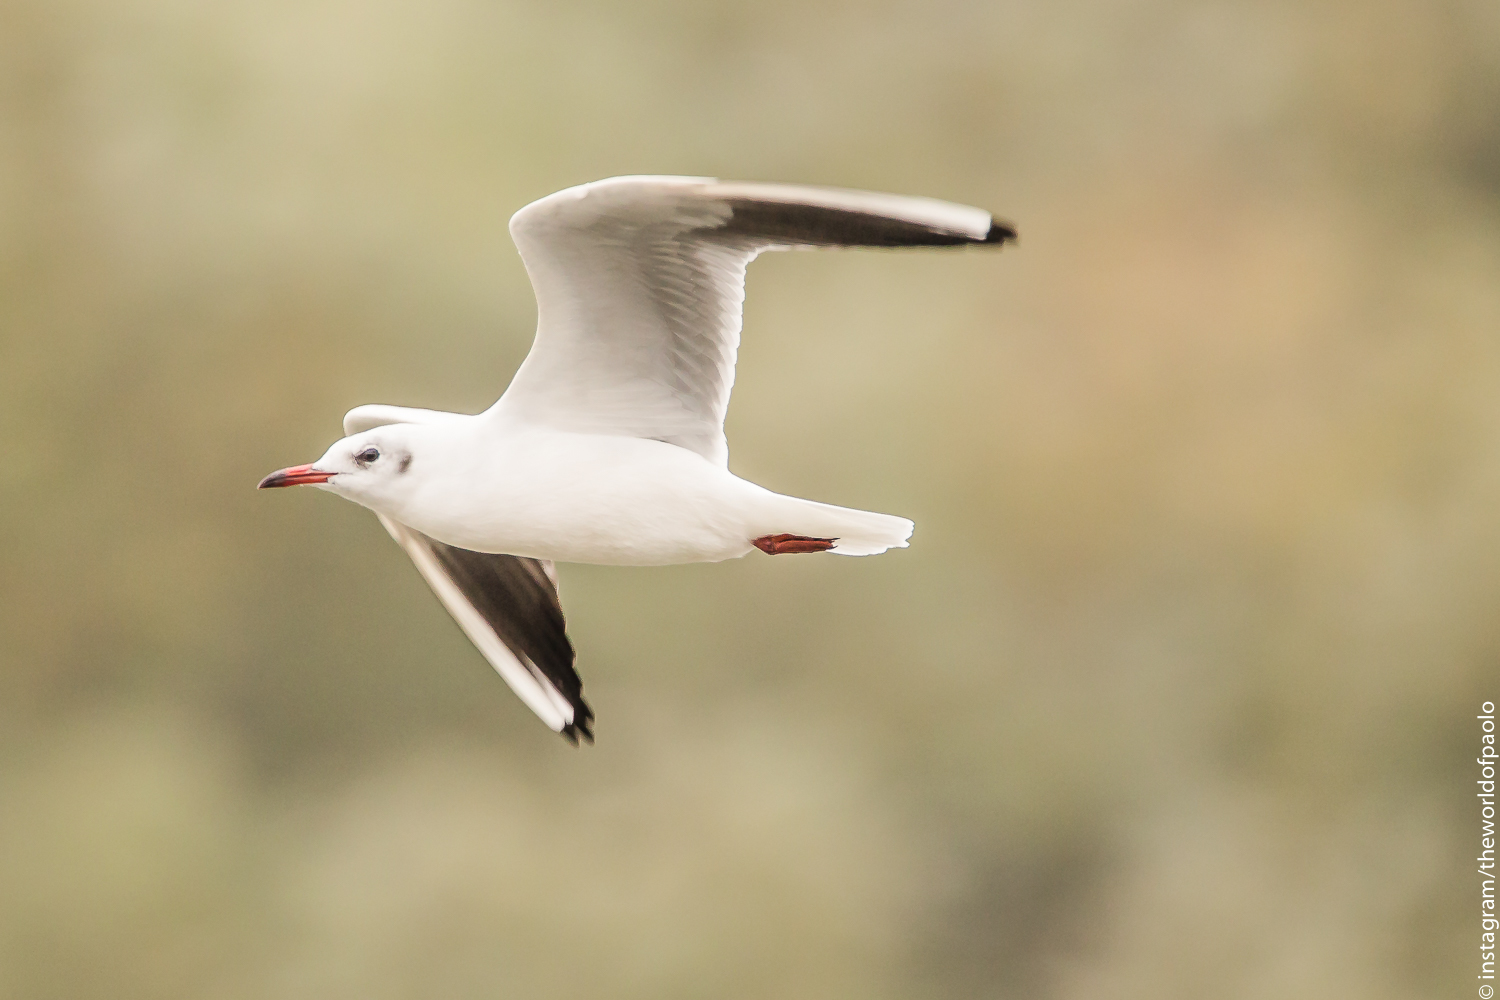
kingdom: Animalia
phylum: Chordata
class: Aves
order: Charadriiformes
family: Laridae
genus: Chroicocephalus
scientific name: Chroicocephalus ridibundus
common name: Black-headed gull
